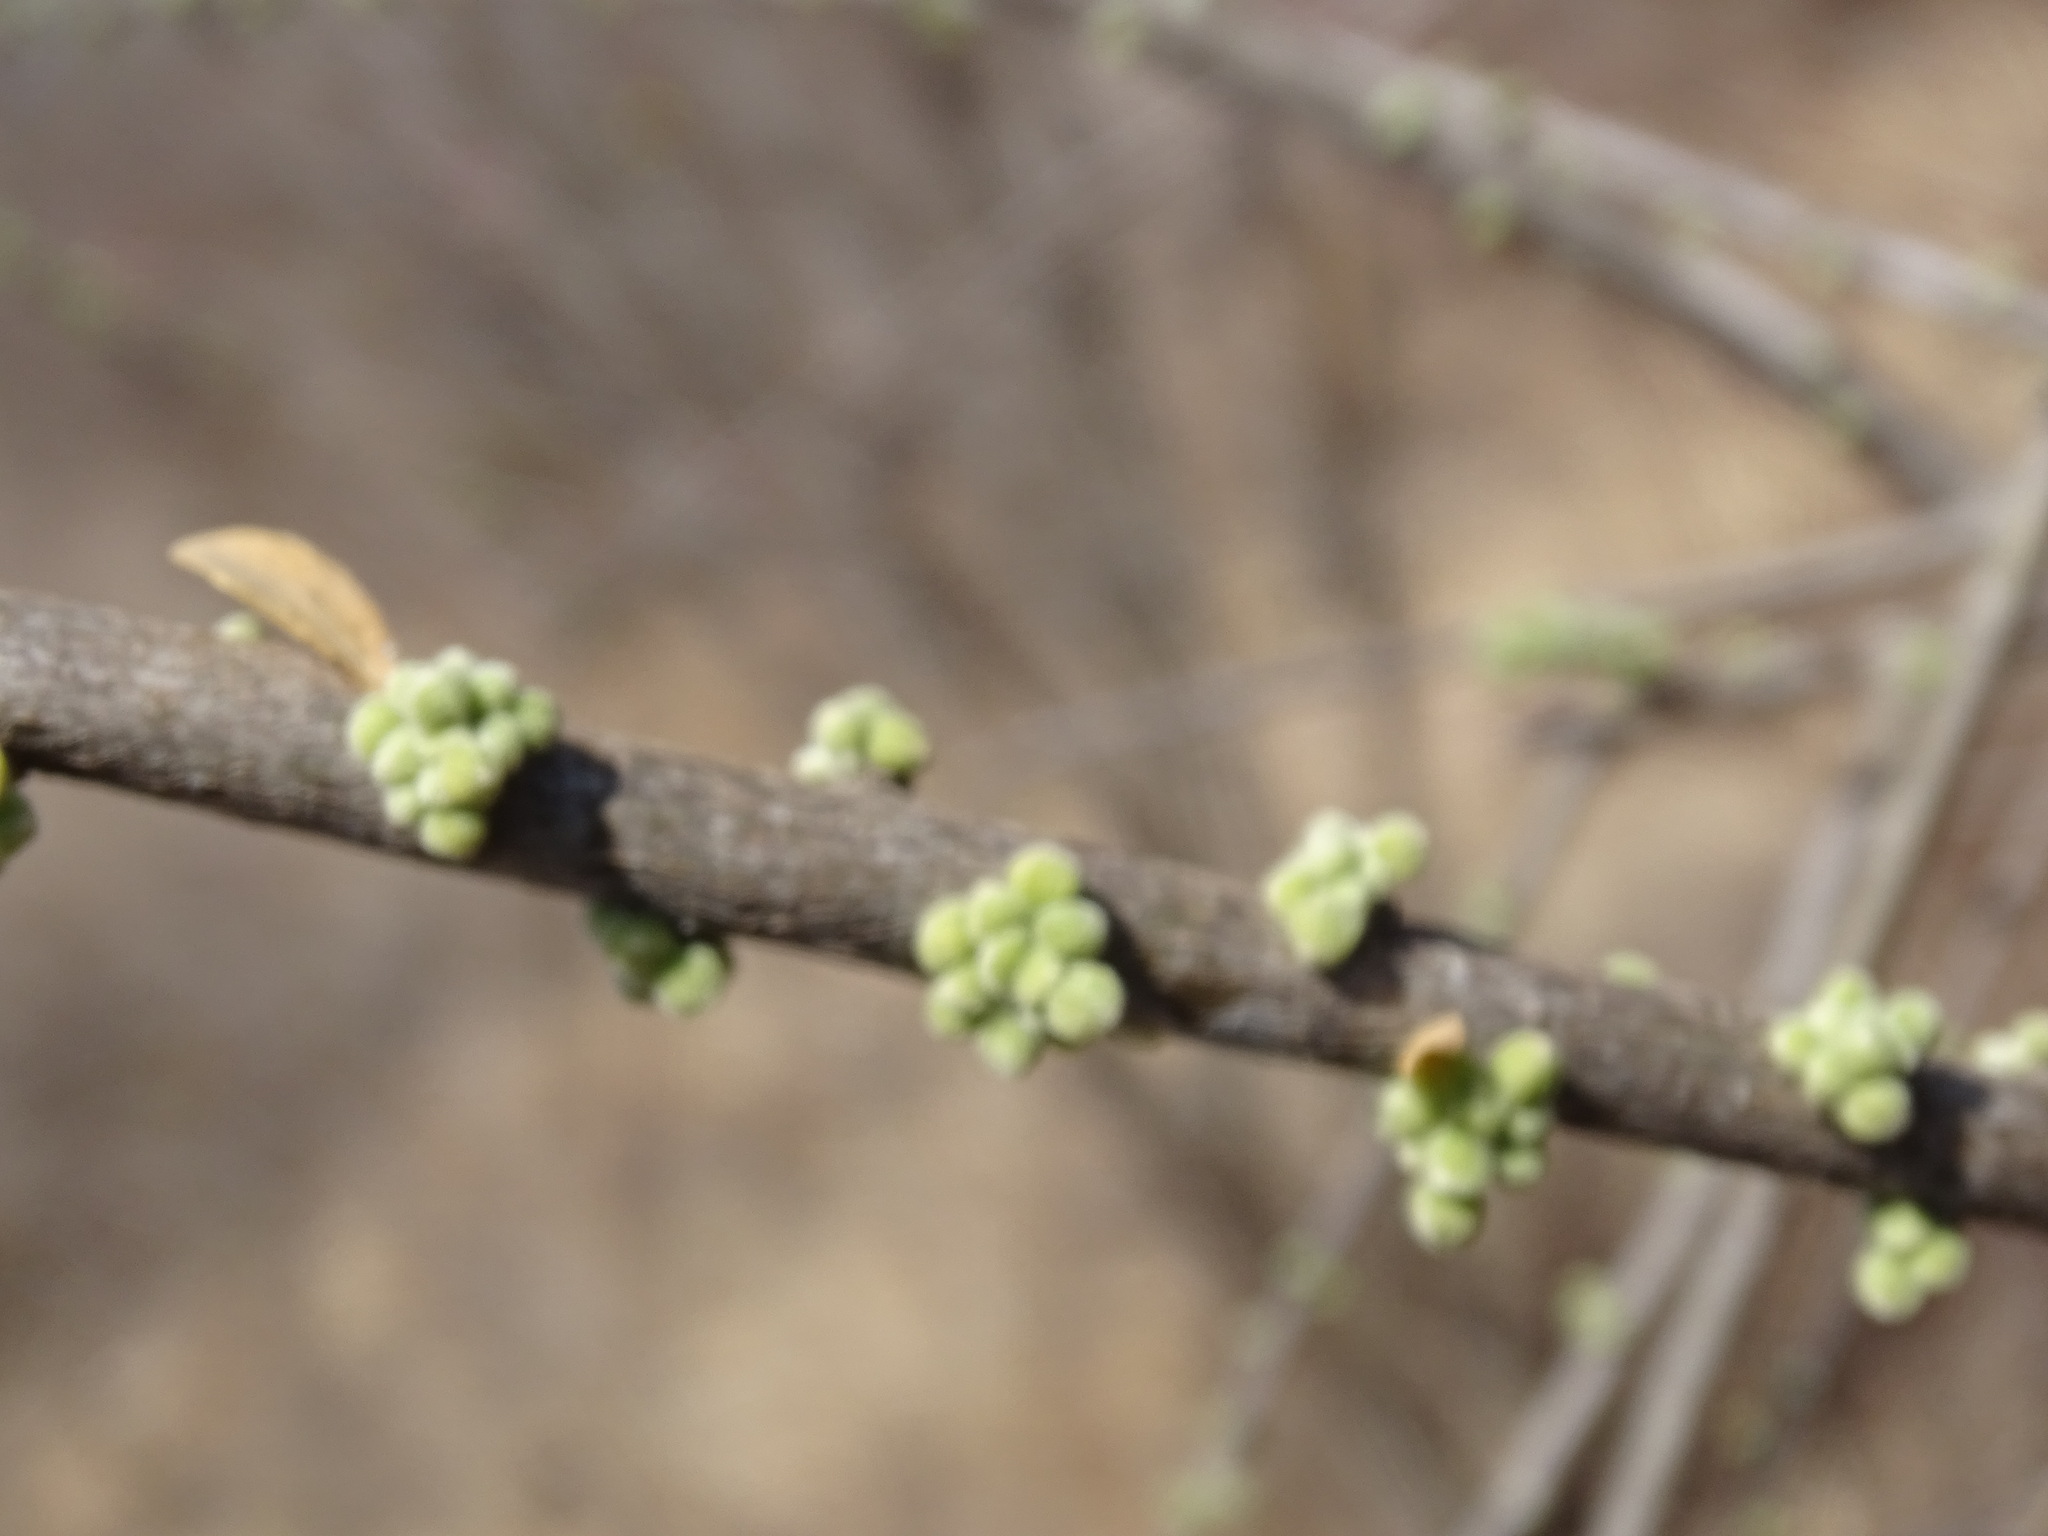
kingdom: Plantae
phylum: Tracheophyta
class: Magnoliopsida
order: Malpighiales
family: Euphorbiaceae
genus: Adelia
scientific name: Adelia brandegeei
